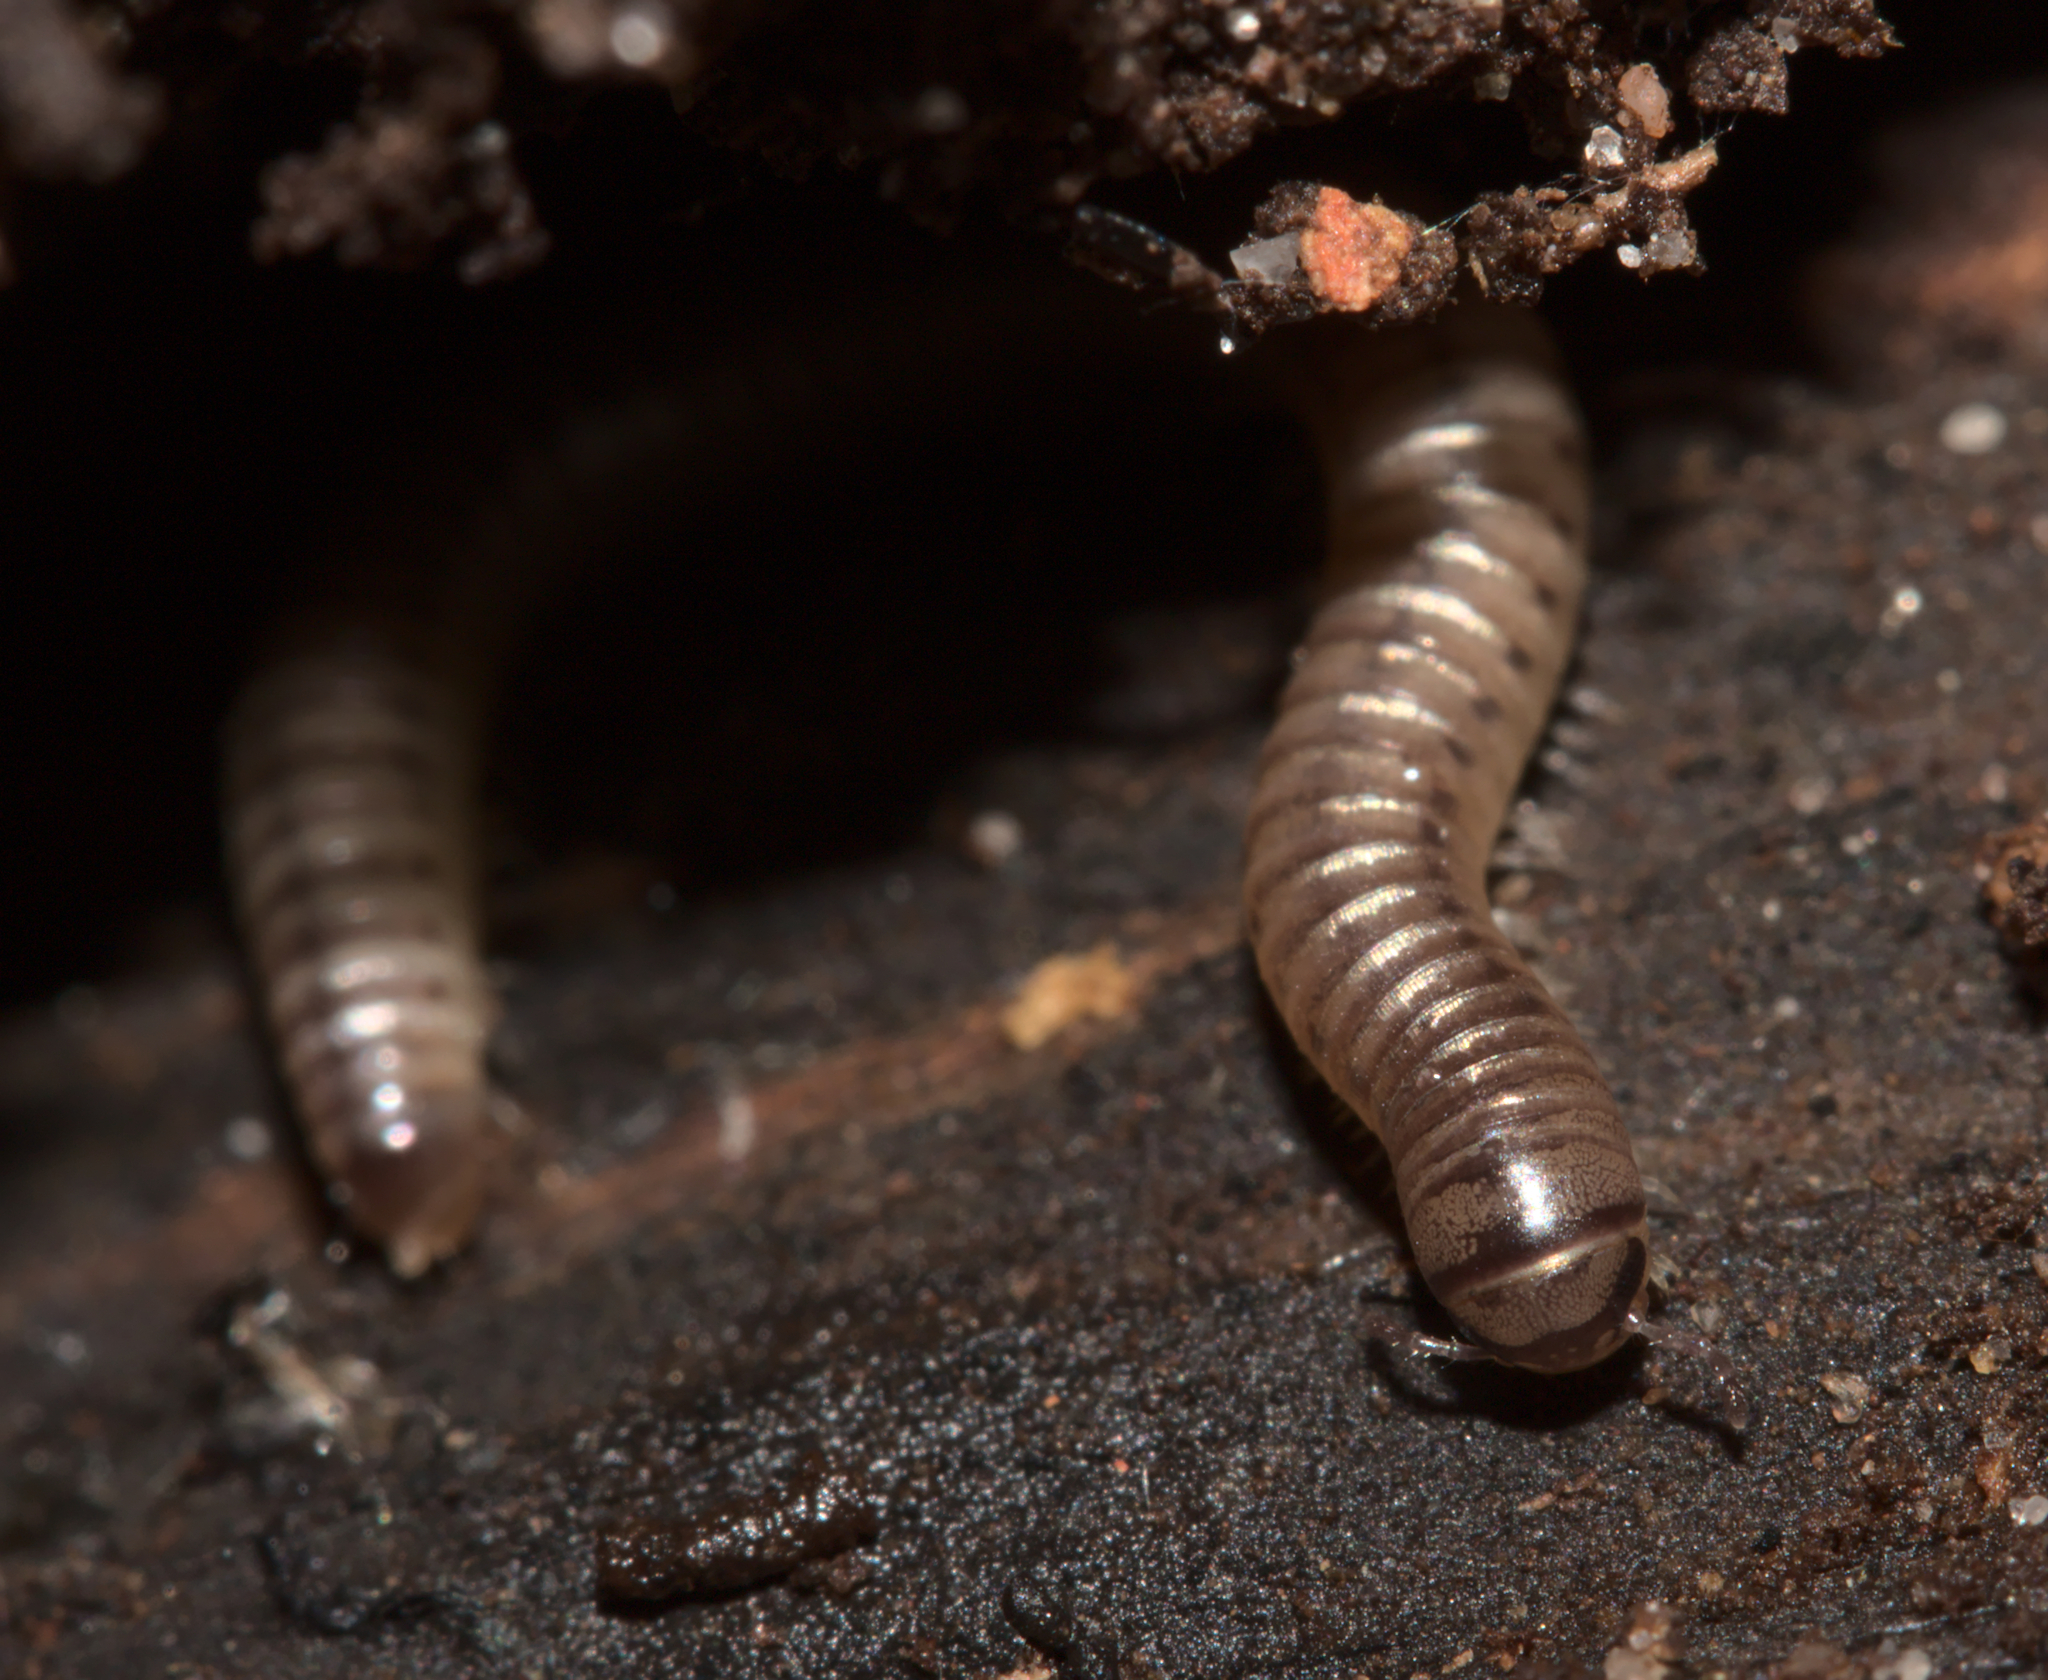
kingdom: Animalia
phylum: Arthropoda
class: Diplopoda
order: Julida
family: Julidae
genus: Cylindroiulus
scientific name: Cylindroiulus punctatus
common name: Blunt-tailed millipede
